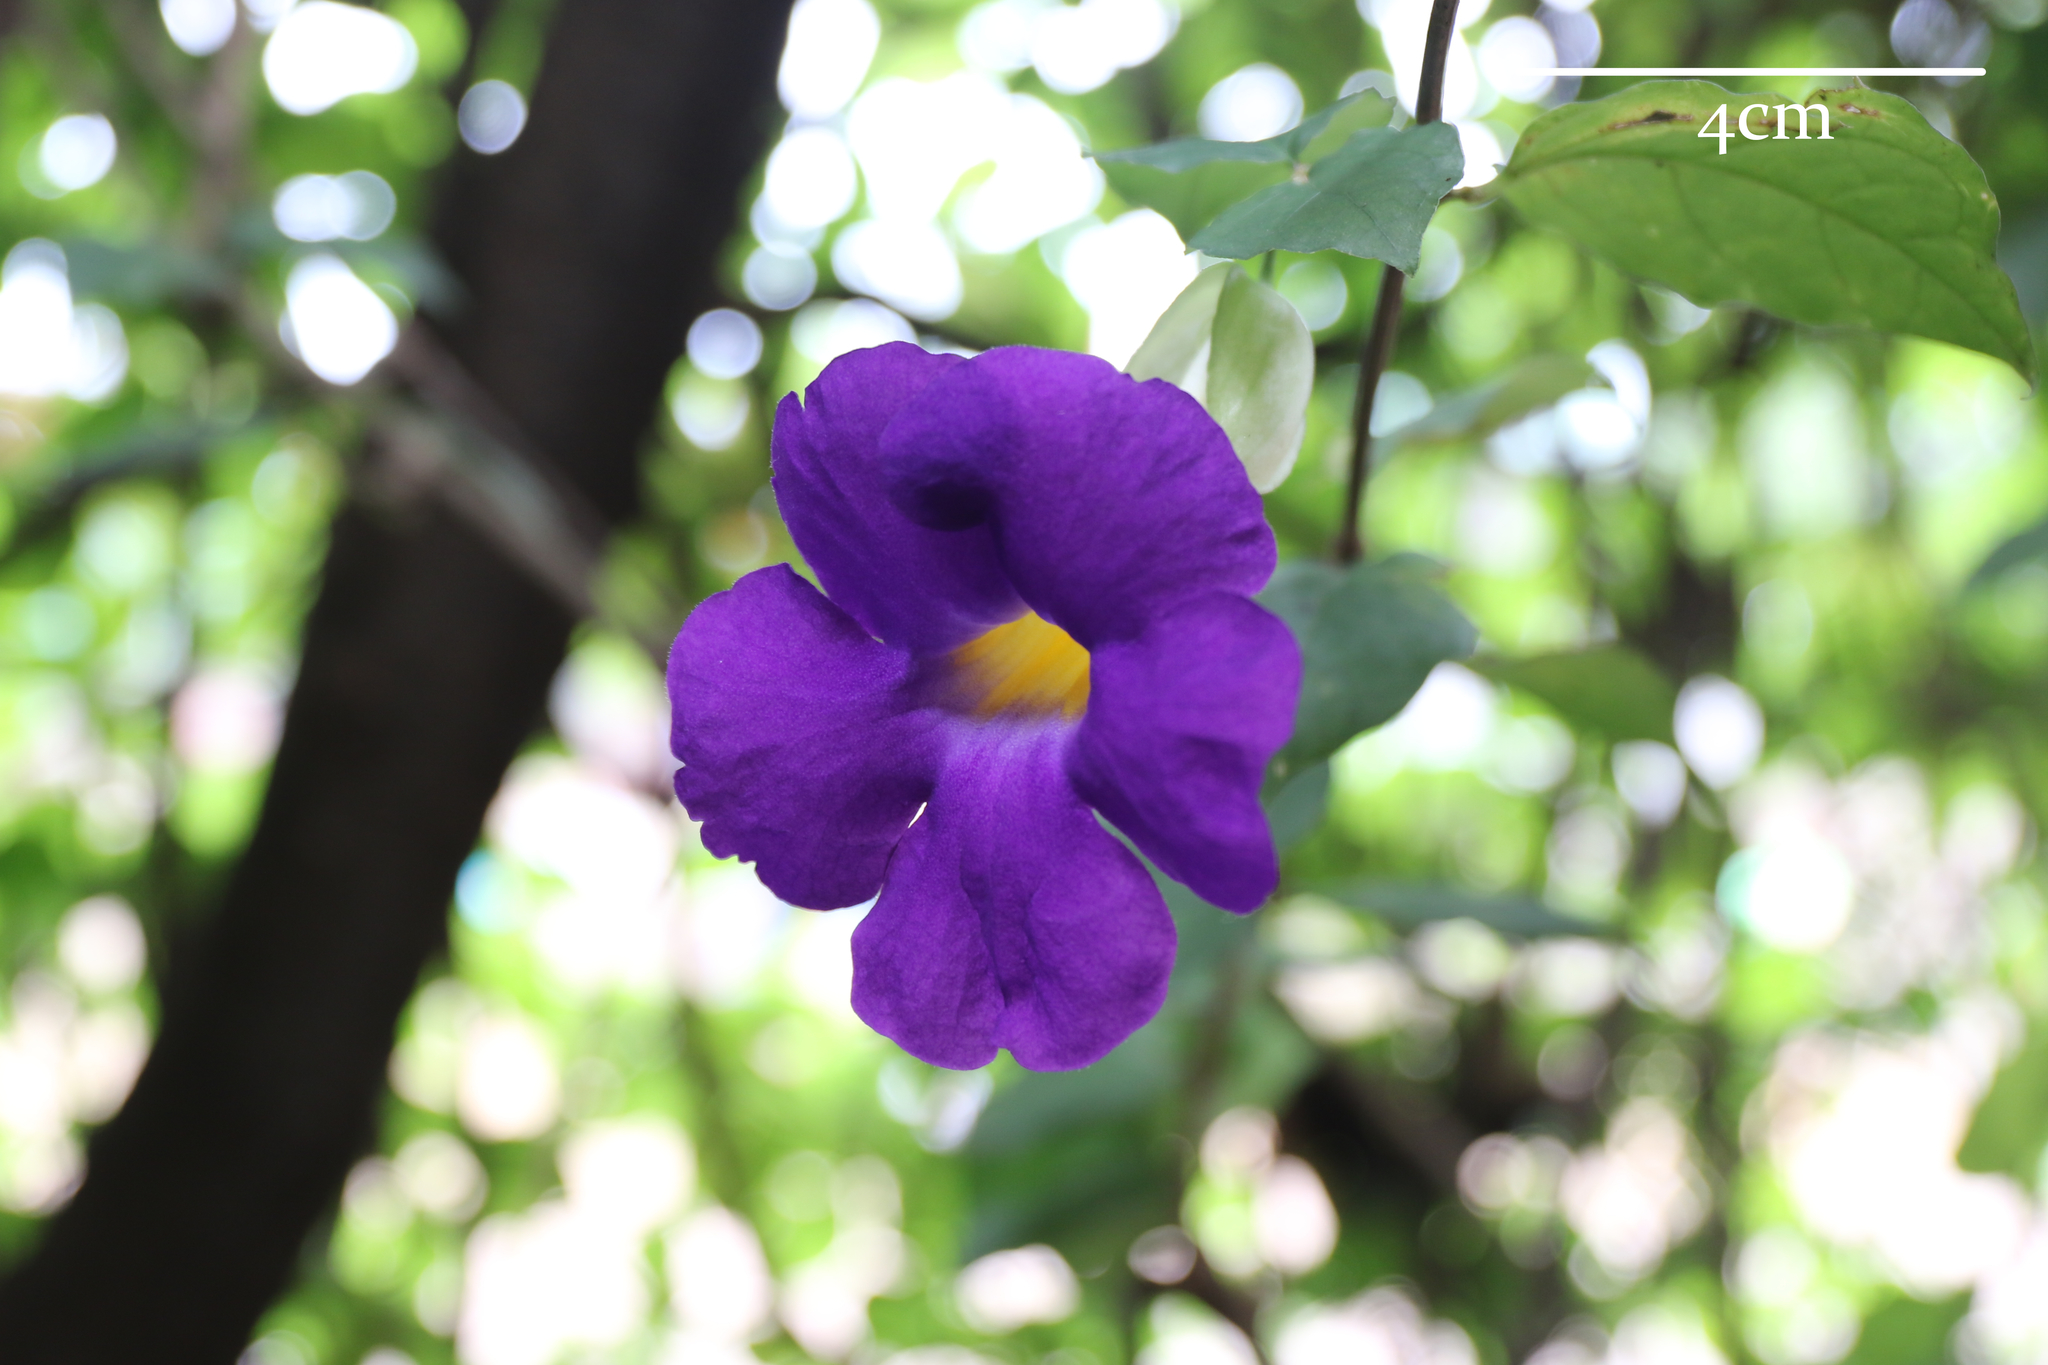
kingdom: Plantae
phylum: Tracheophyta
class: Magnoliopsida
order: Lamiales
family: Acanthaceae
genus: Thunbergia
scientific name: Thunbergia erecta
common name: Bush clockvine
